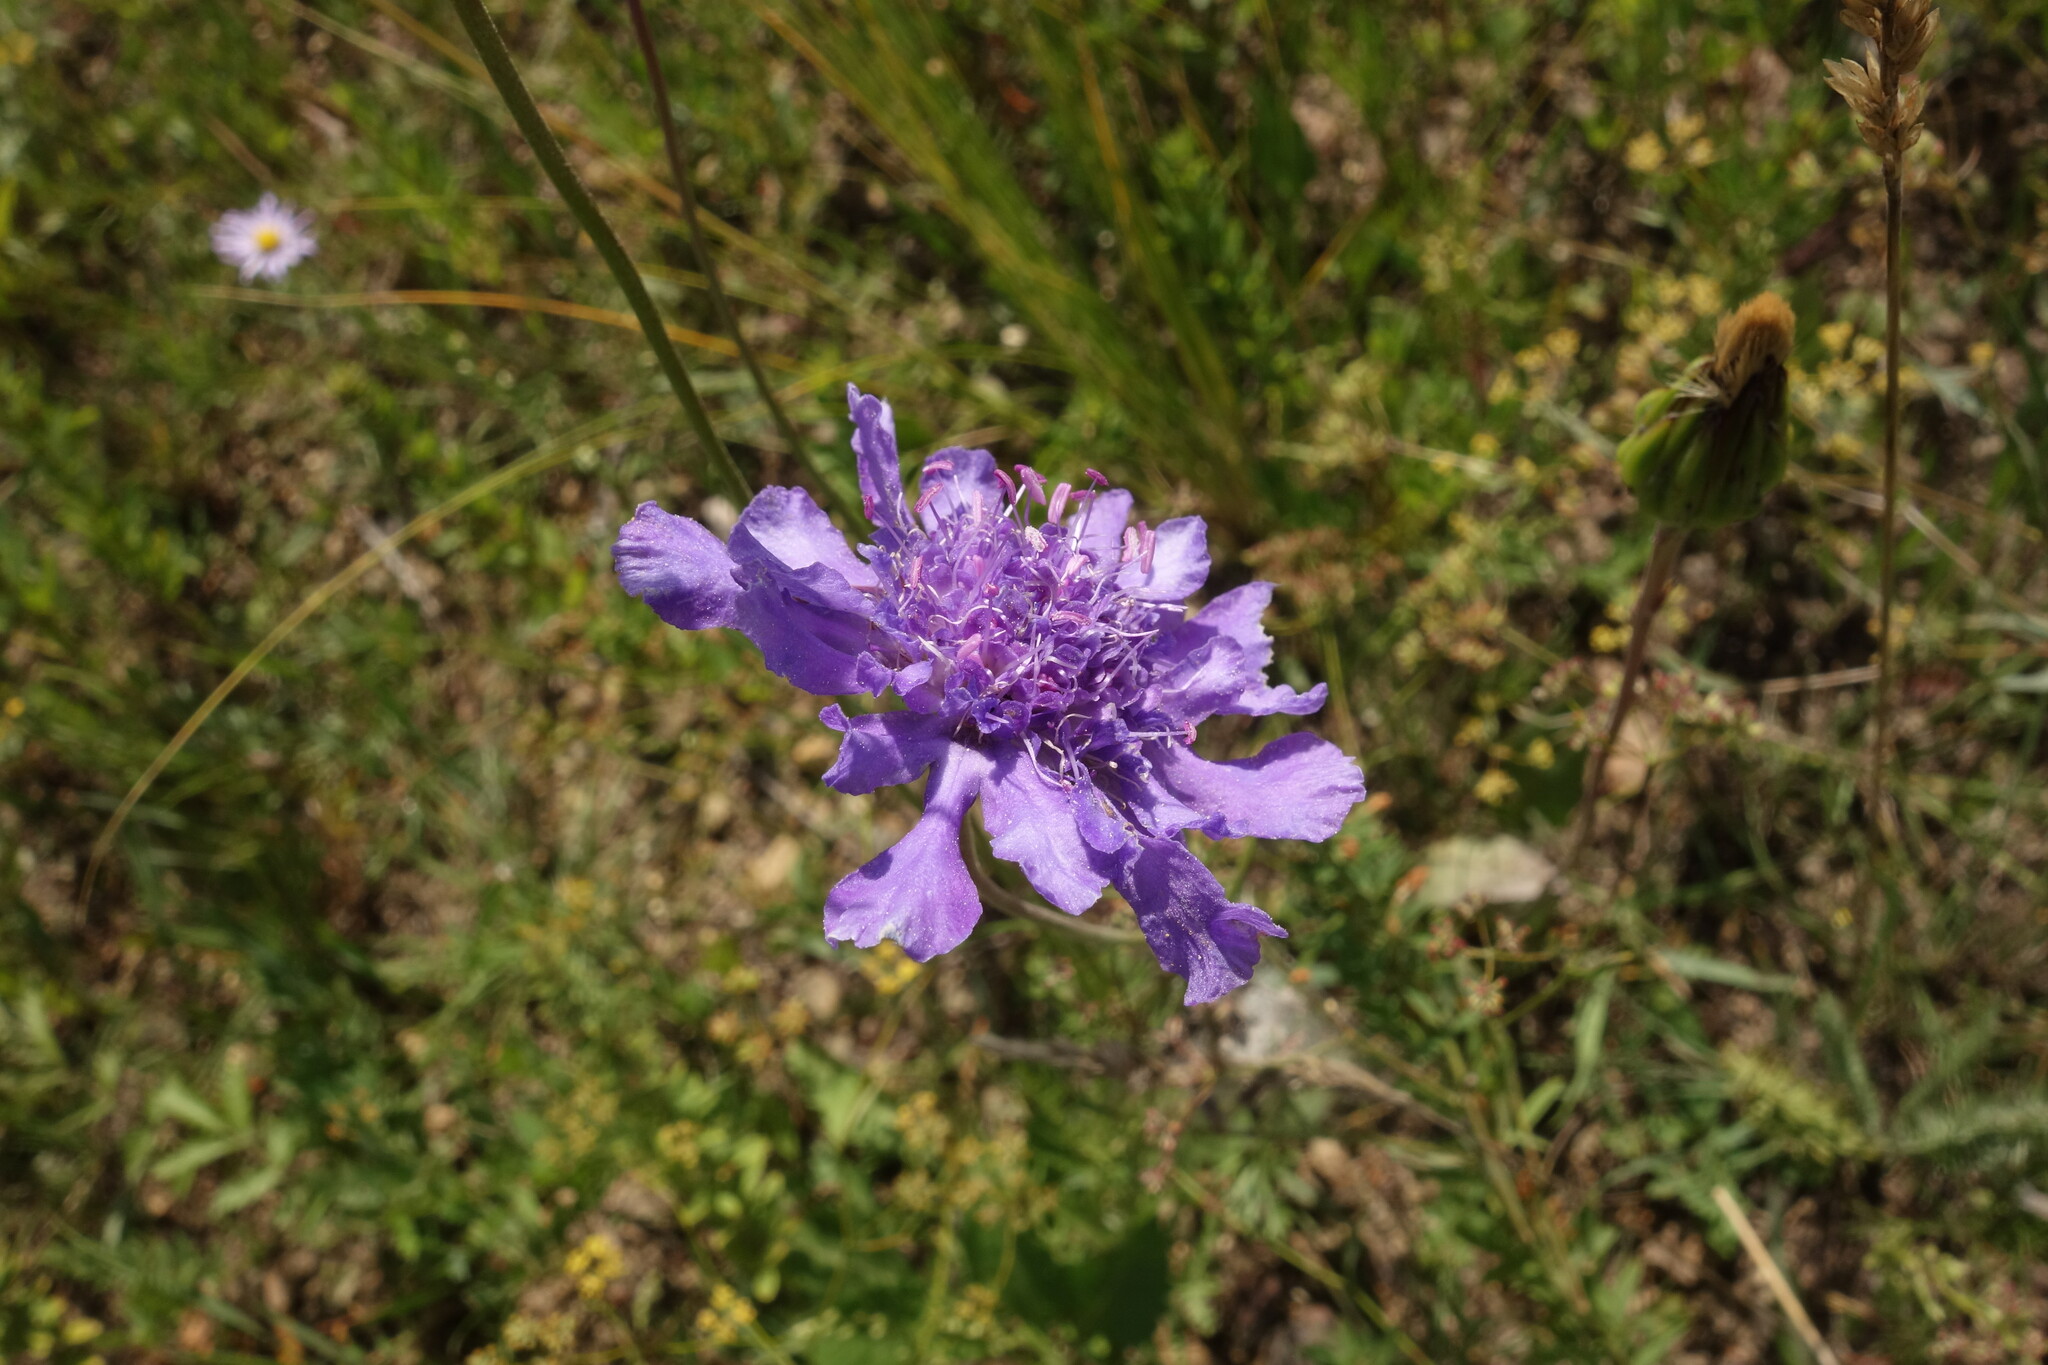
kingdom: Plantae
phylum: Tracheophyta
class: Magnoliopsida
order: Dipsacales
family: Caprifoliaceae
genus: Scabiosa
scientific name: Scabiosa comosa
